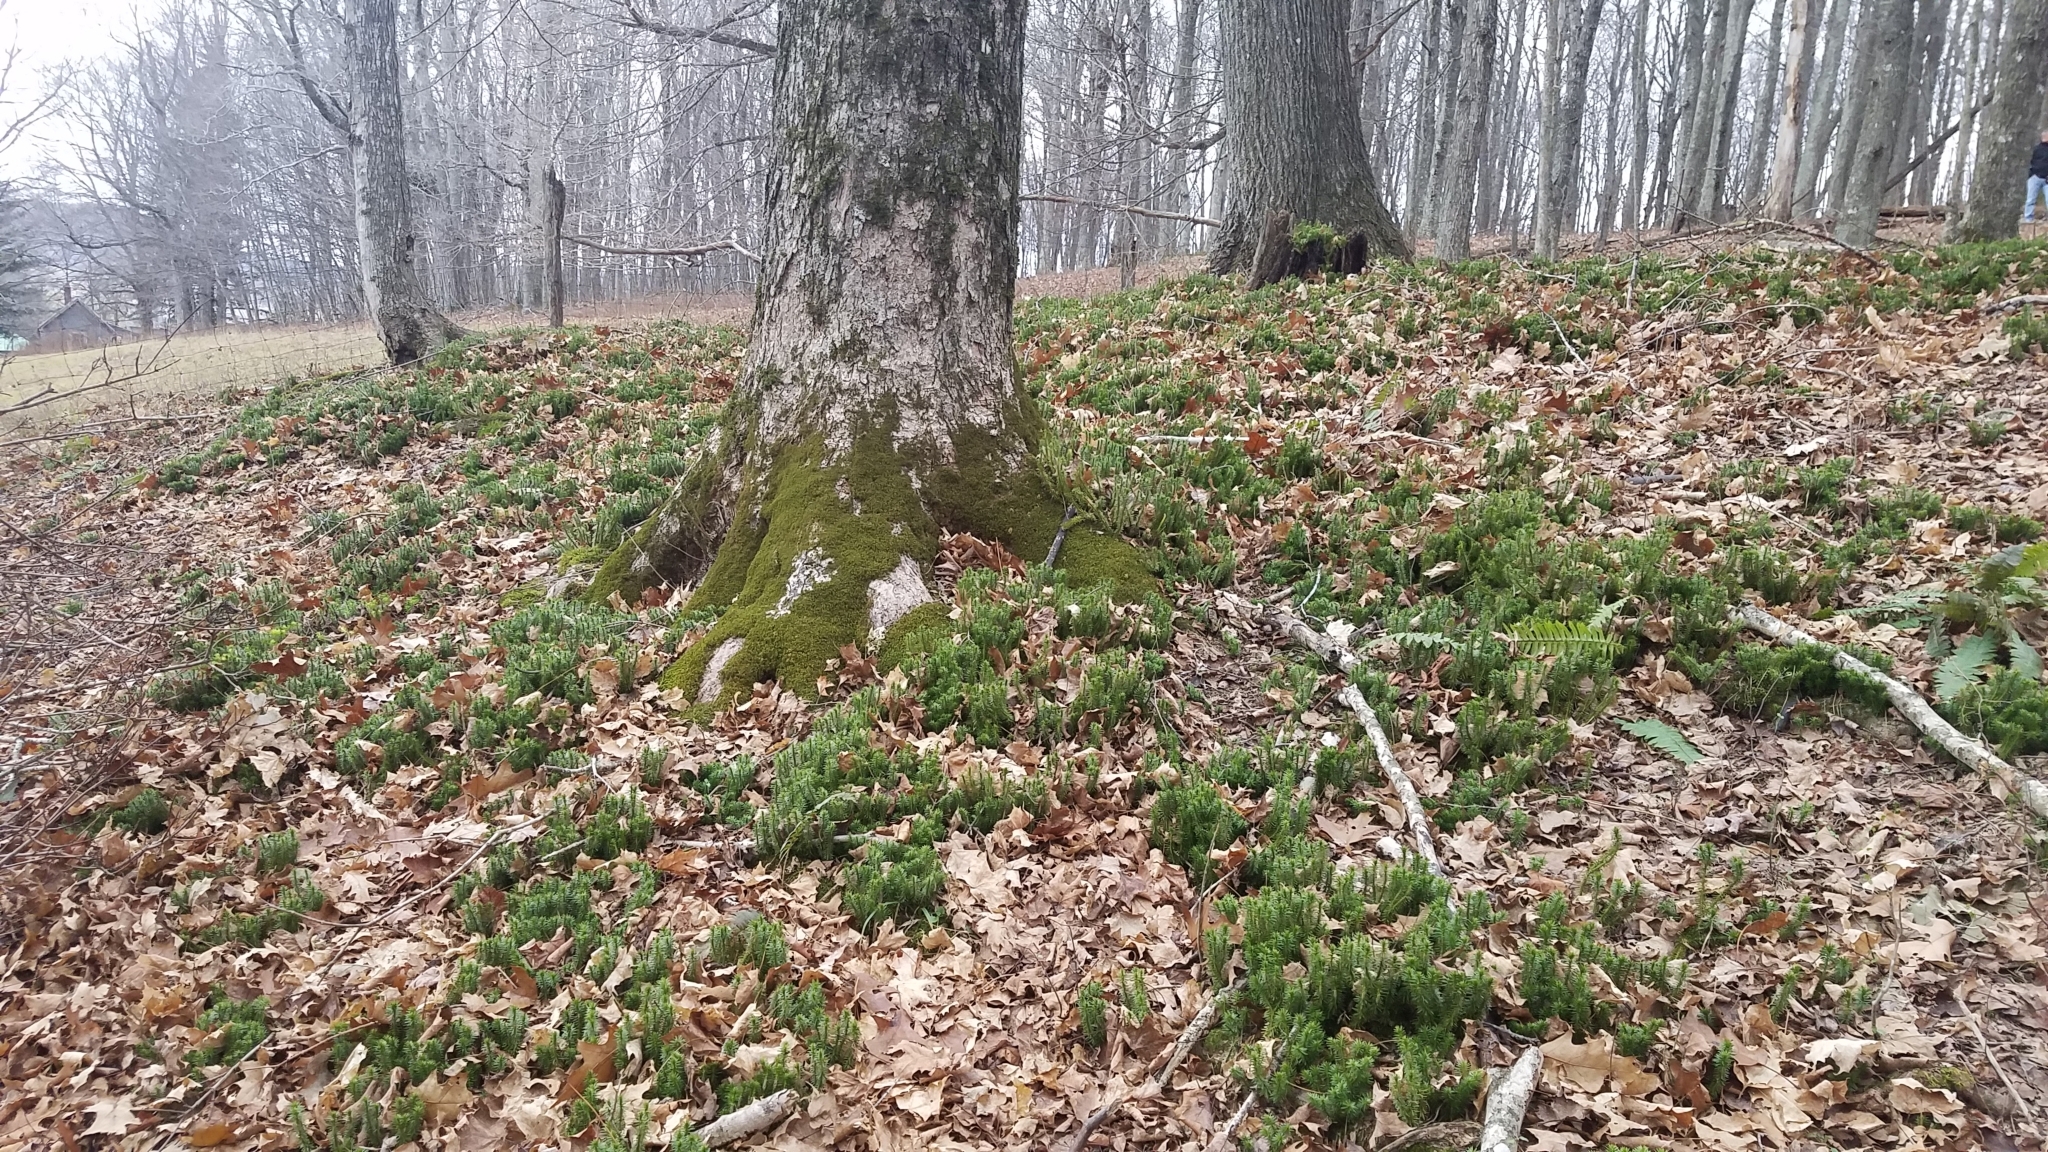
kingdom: Plantae
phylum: Tracheophyta
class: Lycopodiopsida
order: Lycopodiales
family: Lycopodiaceae
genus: Huperzia
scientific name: Huperzia lucidula
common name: Shining clubmoss
